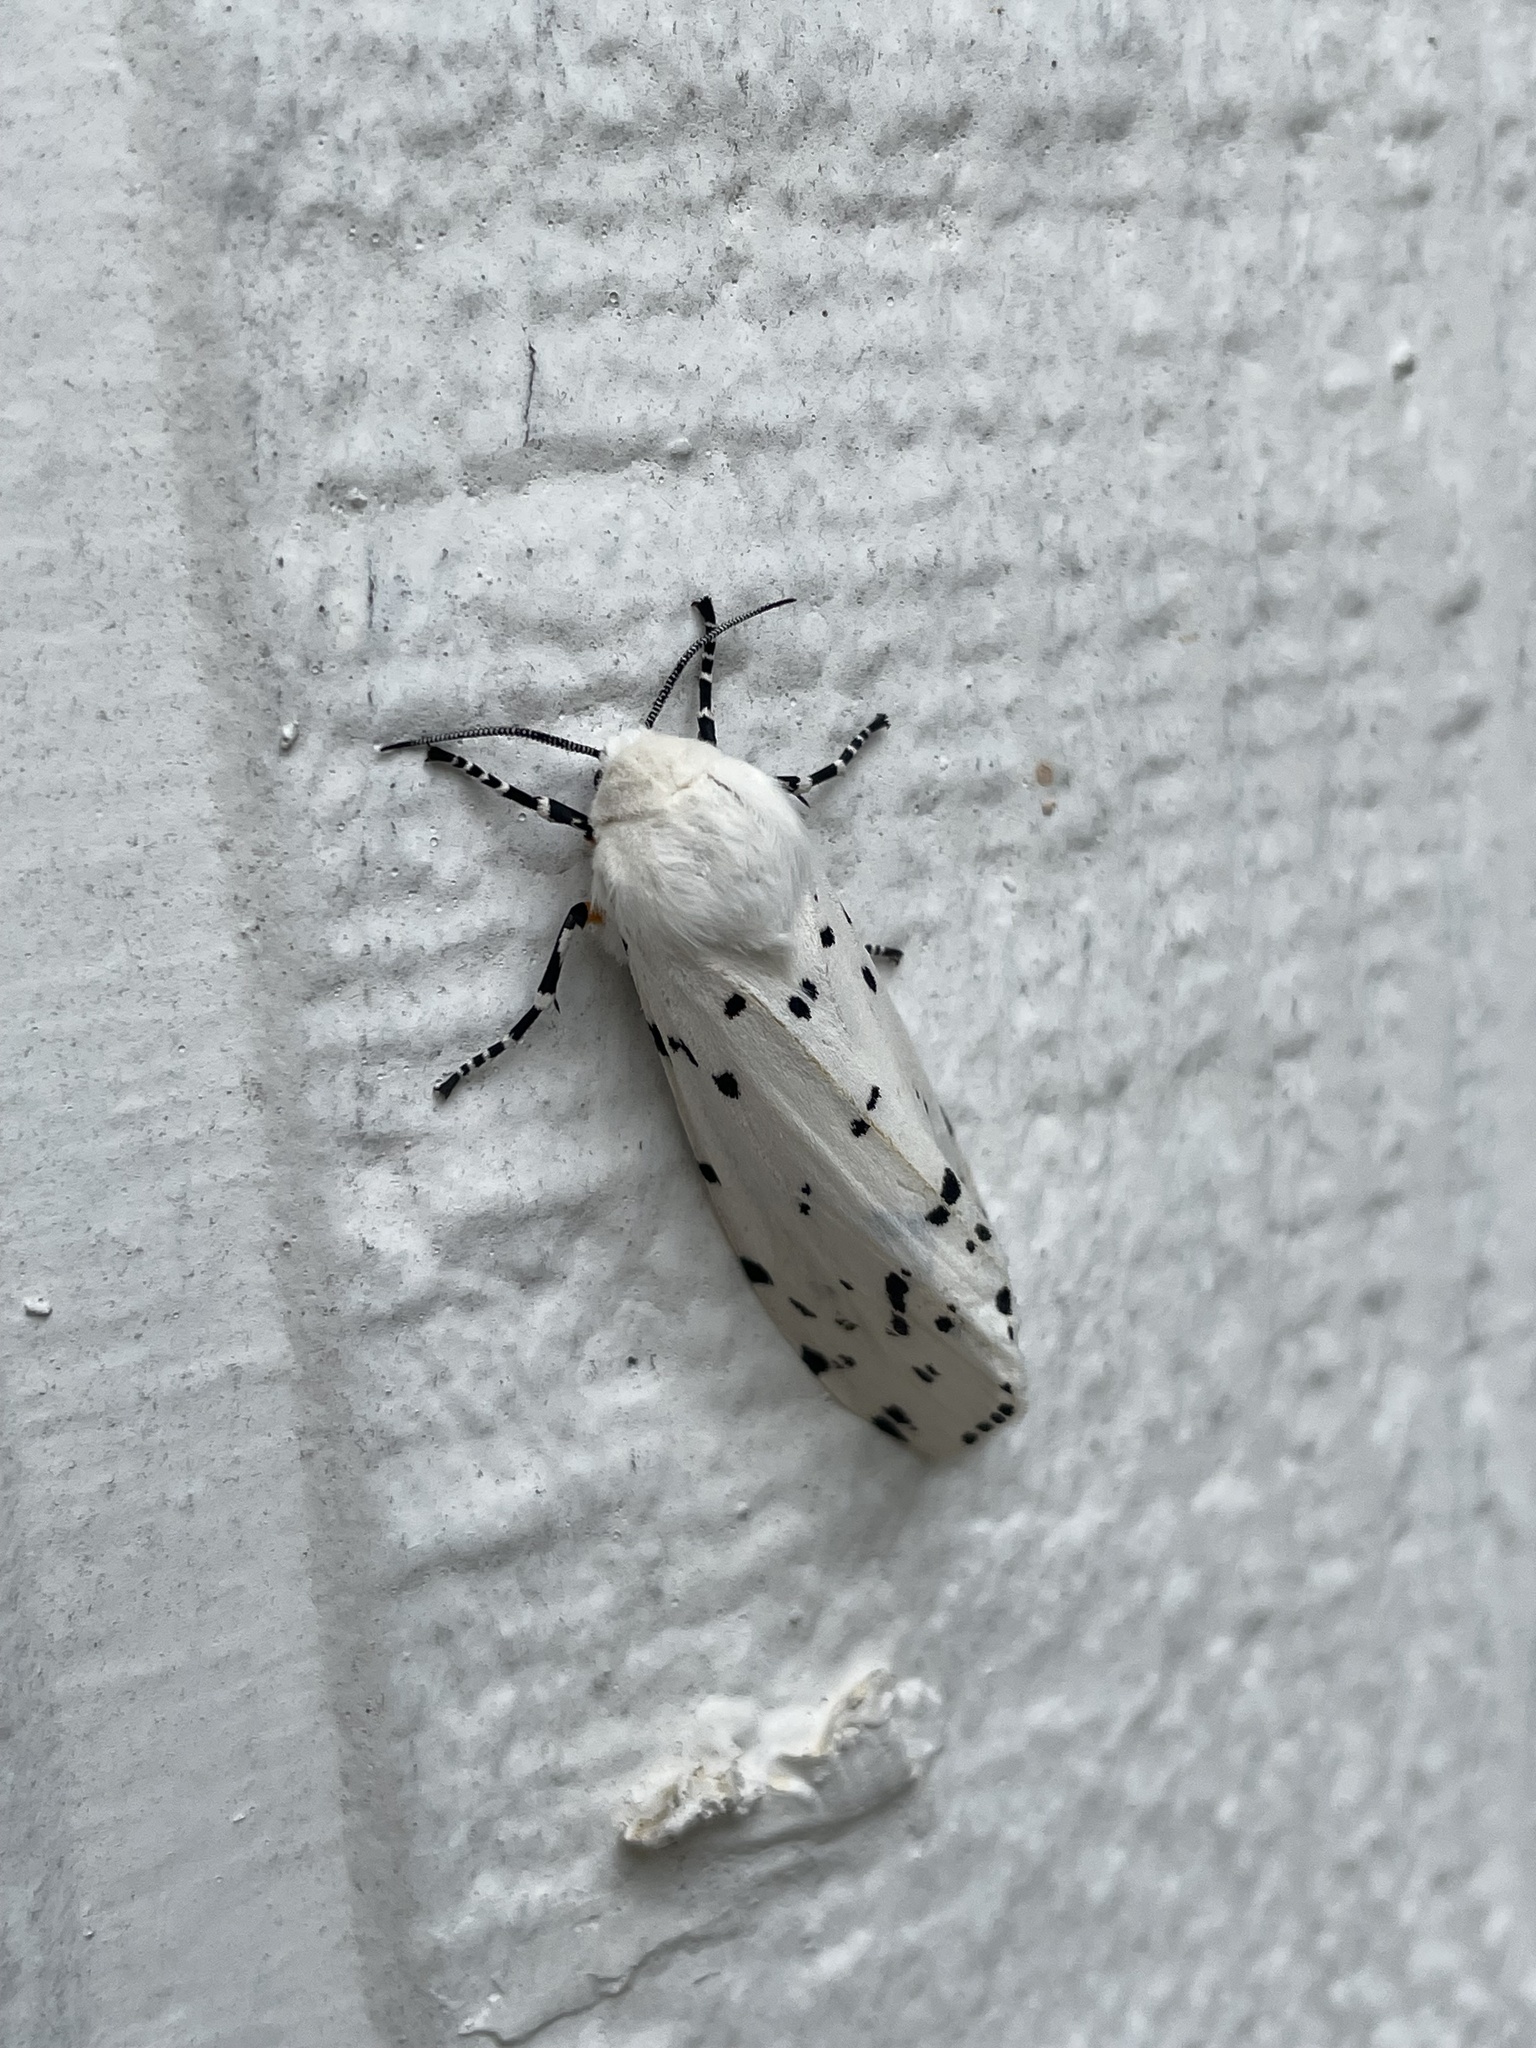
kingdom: Animalia
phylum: Arthropoda
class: Insecta
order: Lepidoptera
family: Erebidae
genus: Estigmene
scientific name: Estigmene acrea
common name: Salt marsh moth
